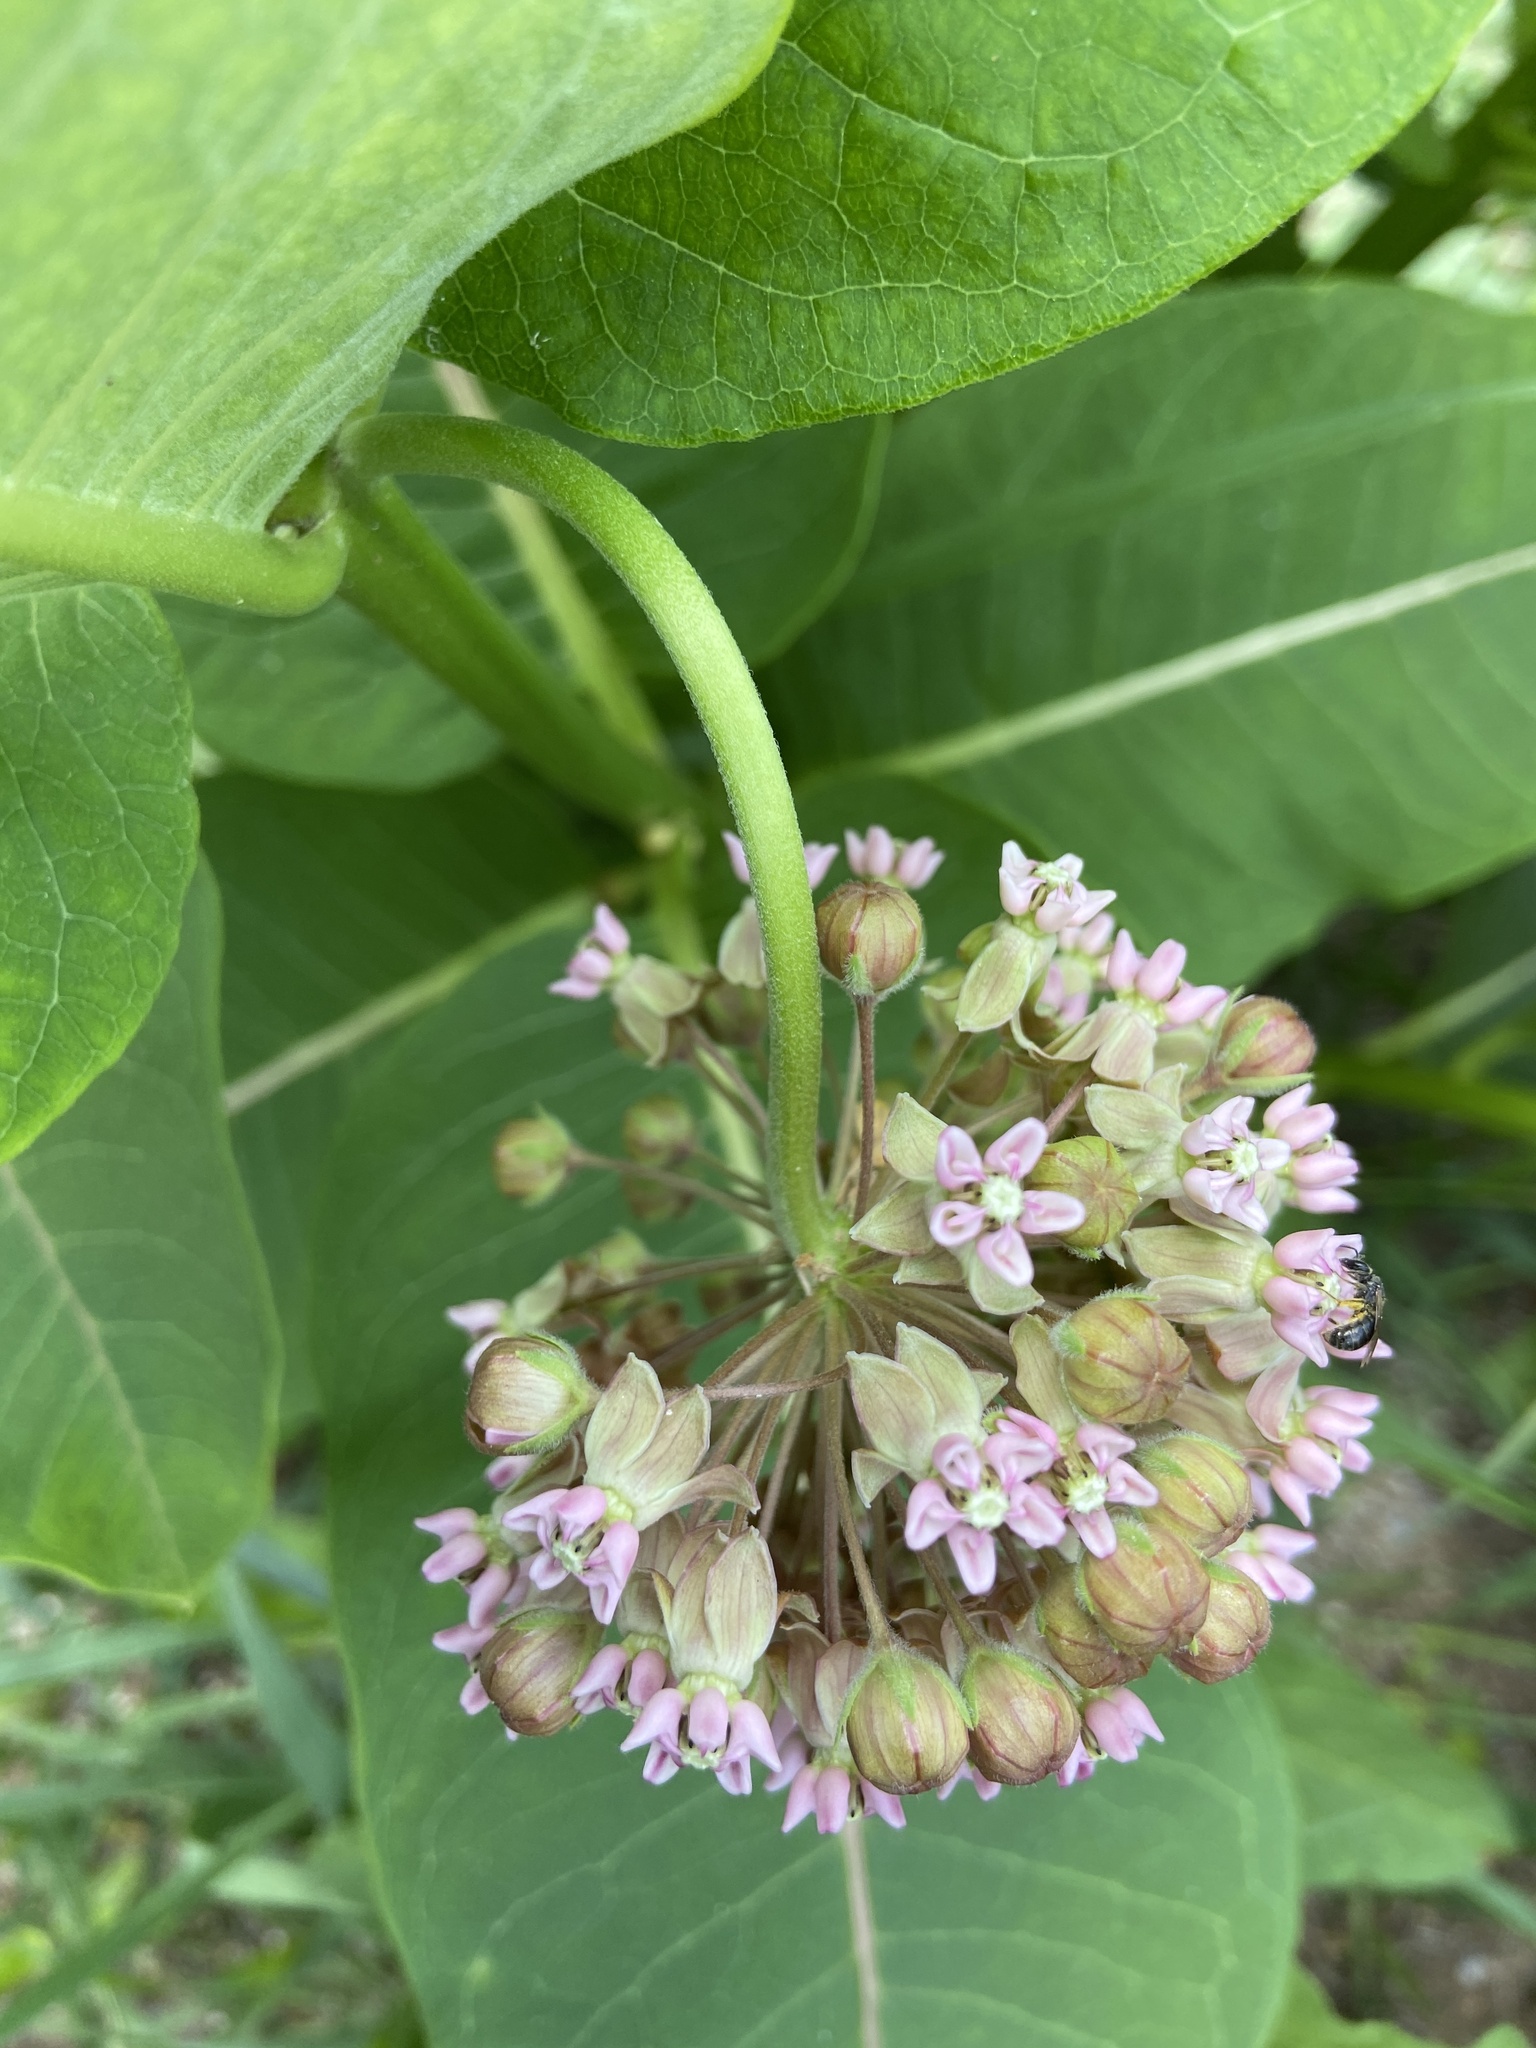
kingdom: Plantae
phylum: Tracheophyta
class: Magnoliopsida
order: Gentianales
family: Apocynaceae
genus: Asclepias
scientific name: Asclepias syriaca
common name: Common milkweed
